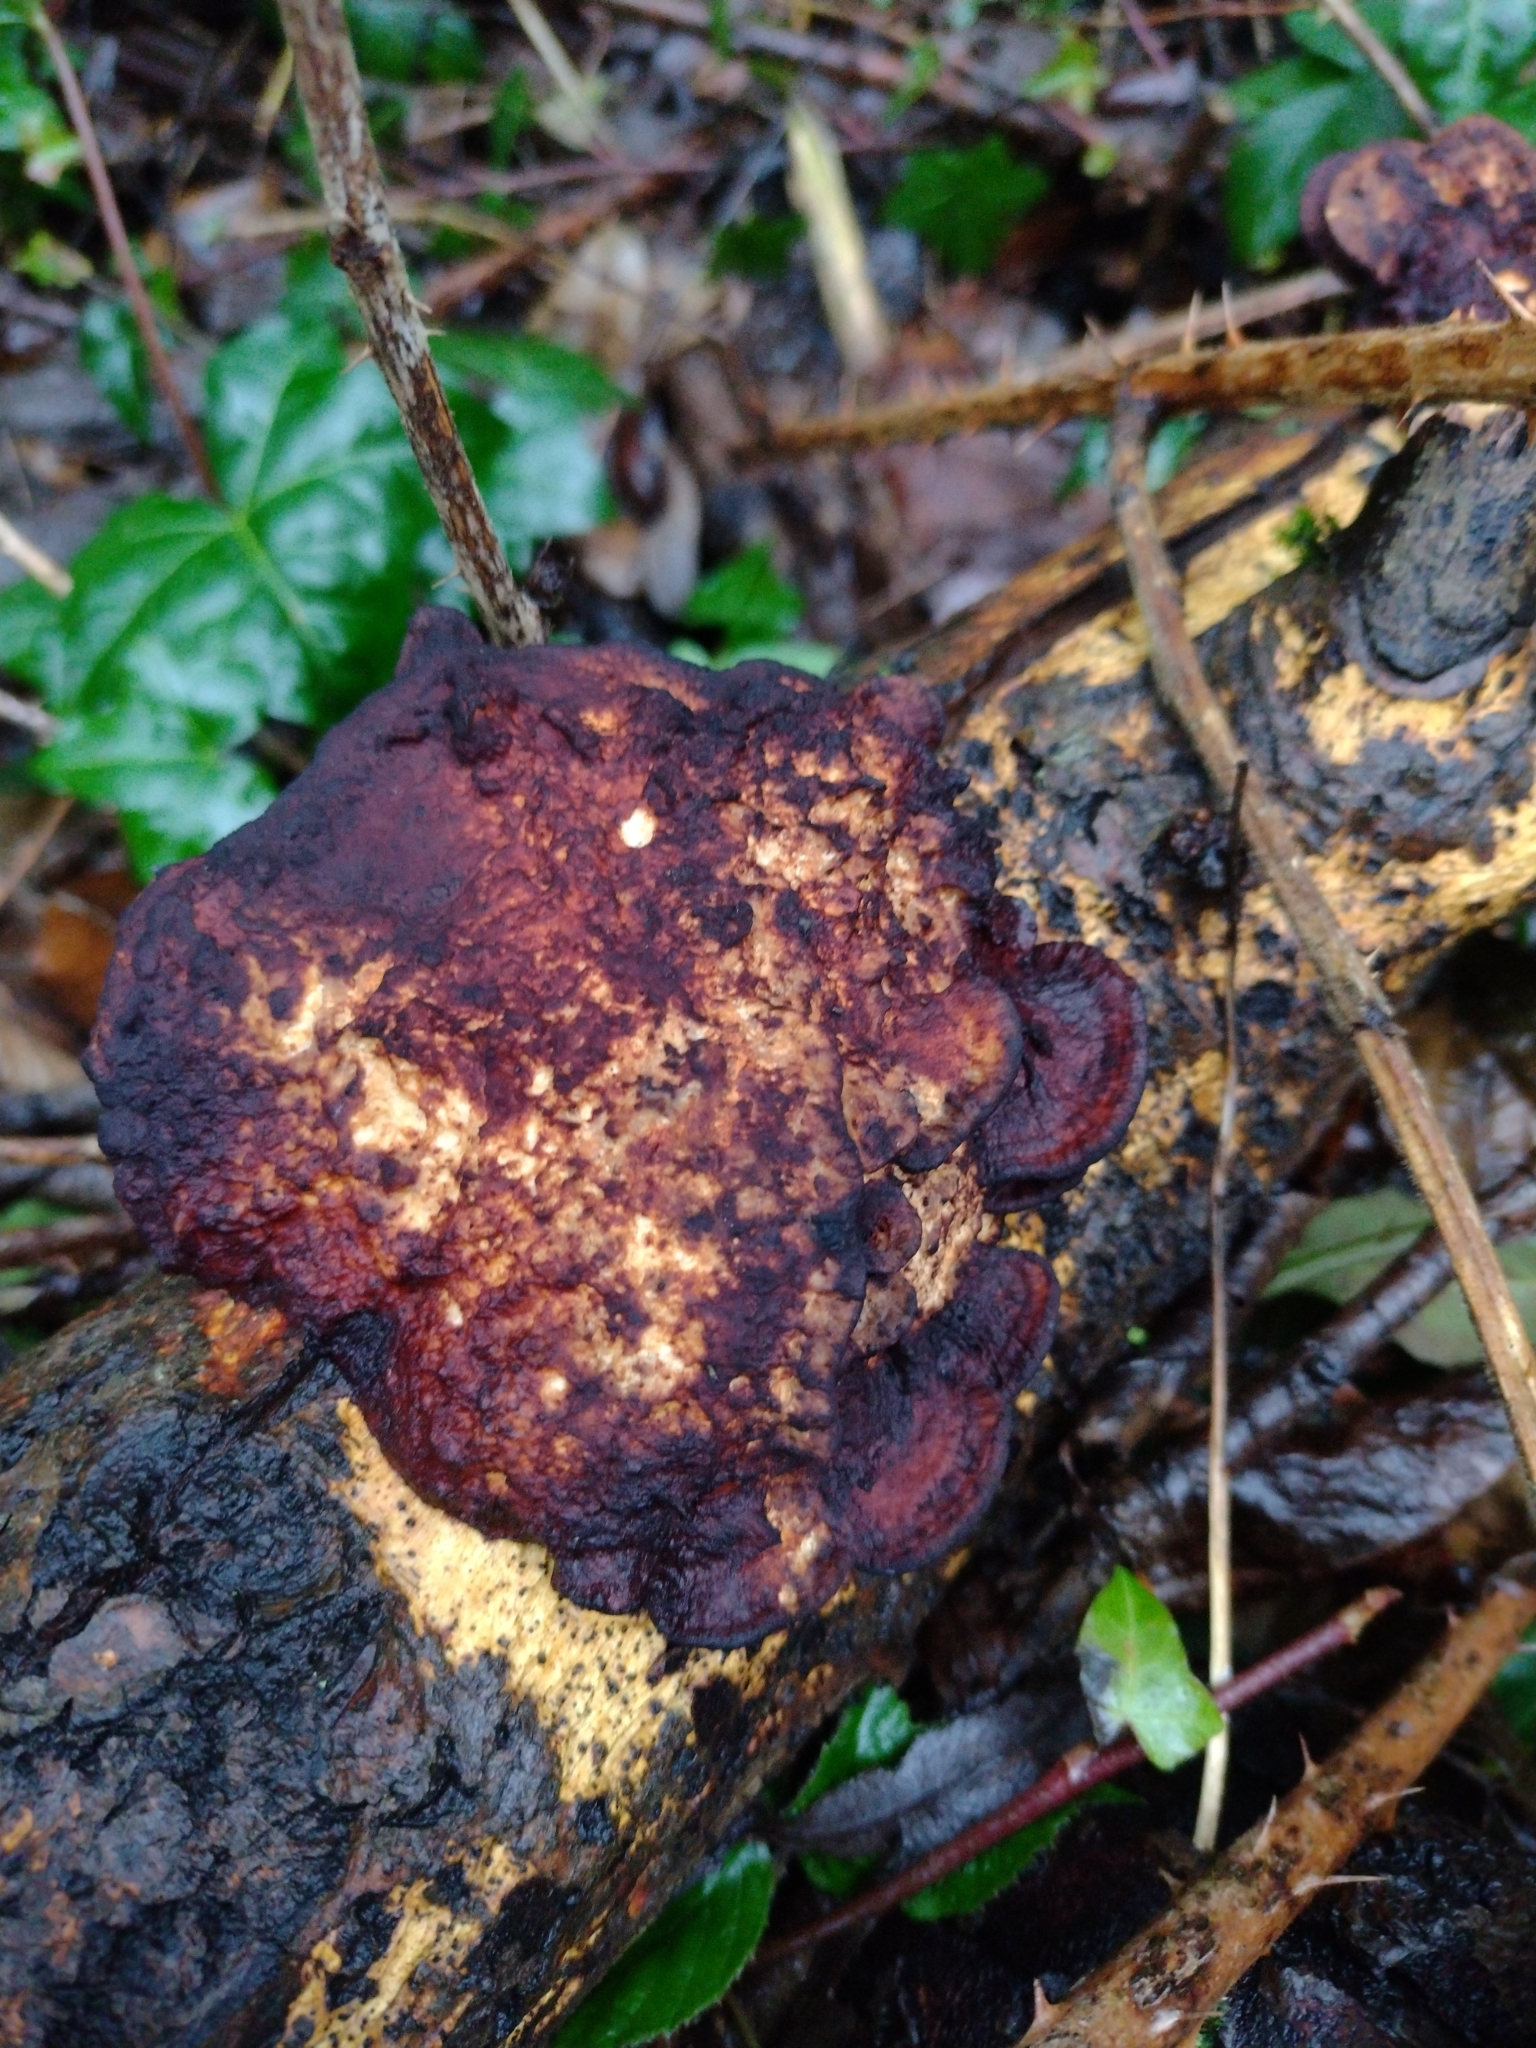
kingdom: Fungi
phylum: Basidiomycota
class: Agaricomycetes
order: Polyporales
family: Polyporaceae
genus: Daedaleopsis
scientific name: Daedaleopsis confragosa
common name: Blushing bracket
